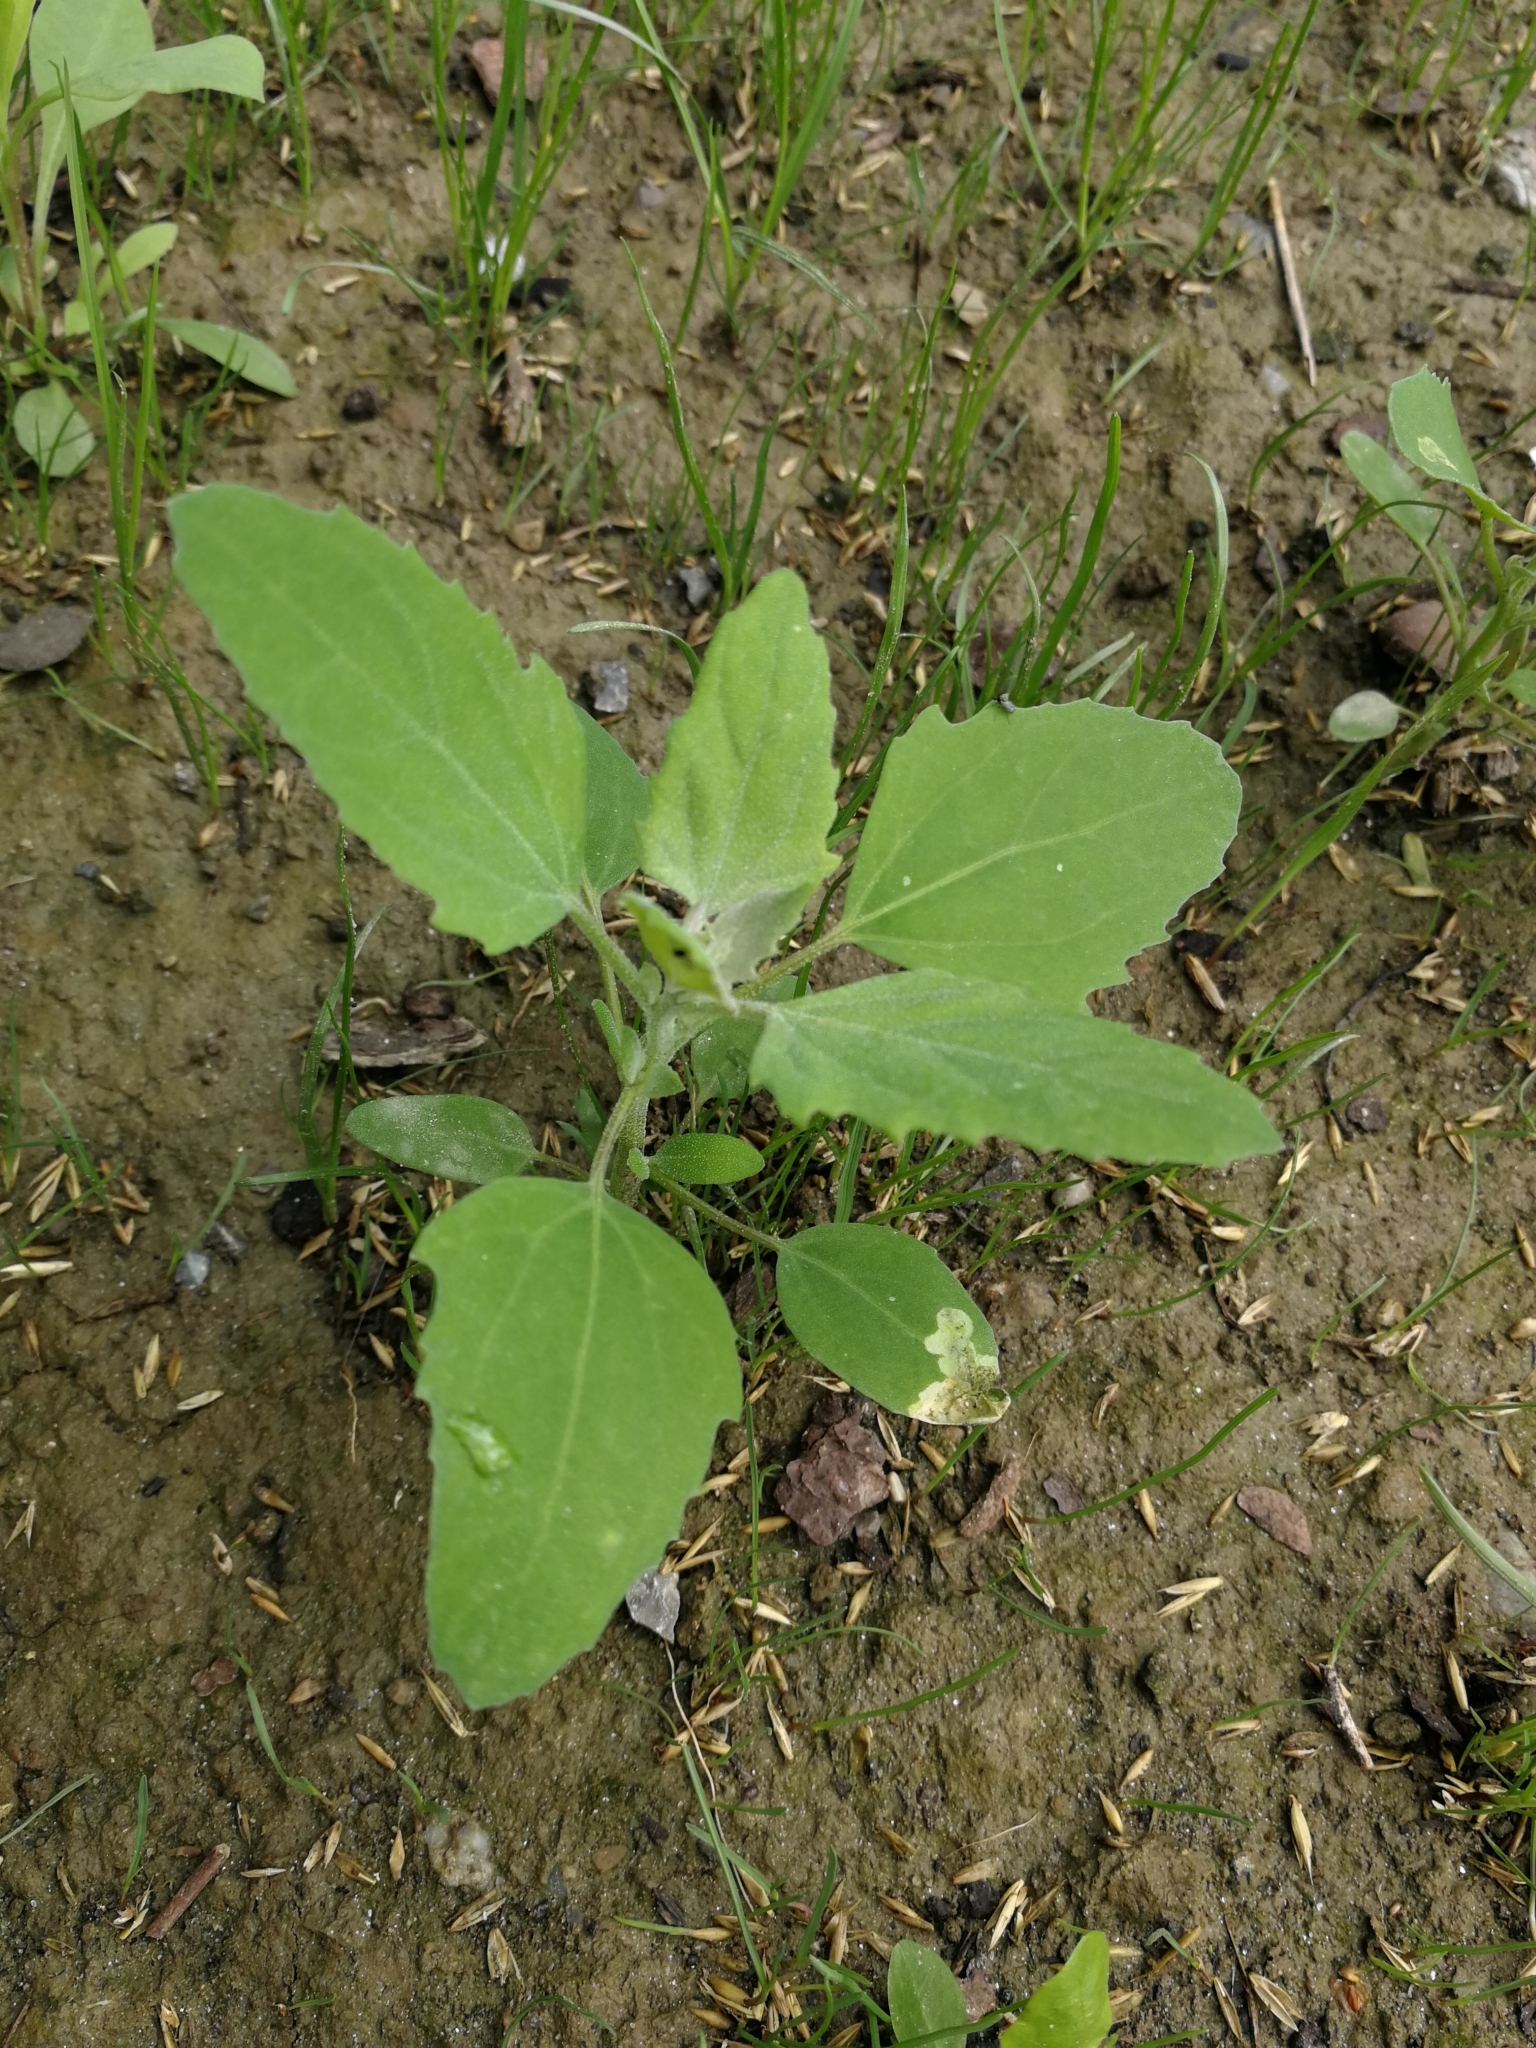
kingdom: Plantae
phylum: Tracheophyta
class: Magnoliopsida
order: Caryophyllales
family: Amaranthaceae
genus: Chenopodium
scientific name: Chenopodium album
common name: Fat-hen
